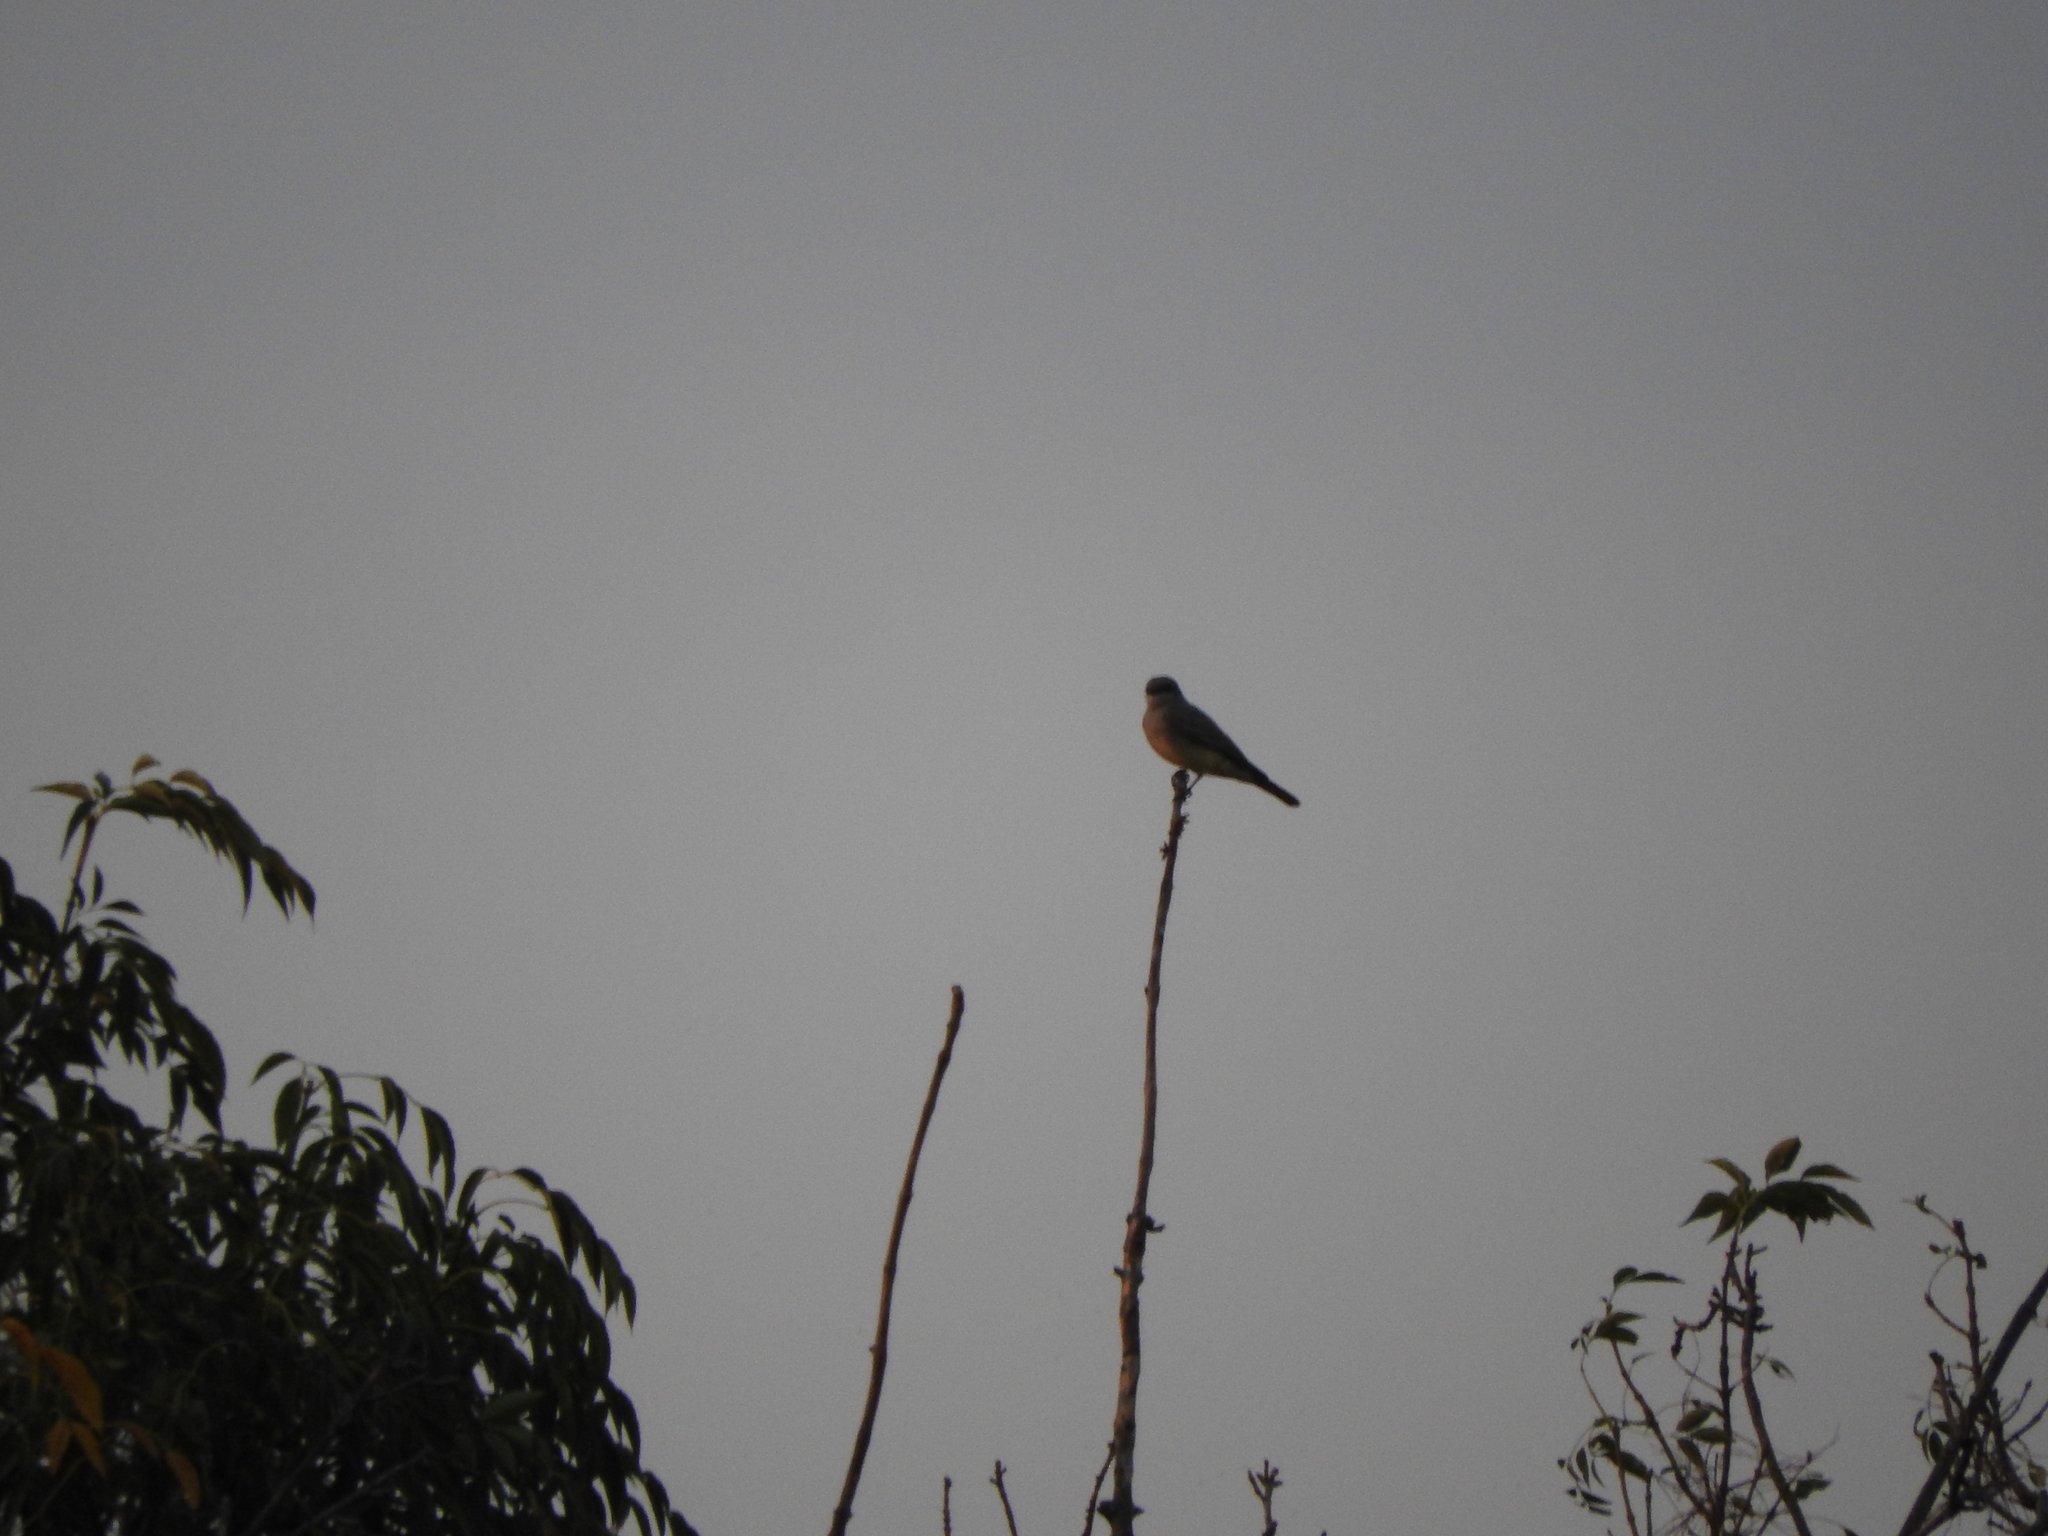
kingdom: Animalia
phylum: Chordata
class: Aves
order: Passeriformes
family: Tyrannidae
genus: Tyrannus
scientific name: Tyrannus vociferans
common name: Cassin's kingbird
